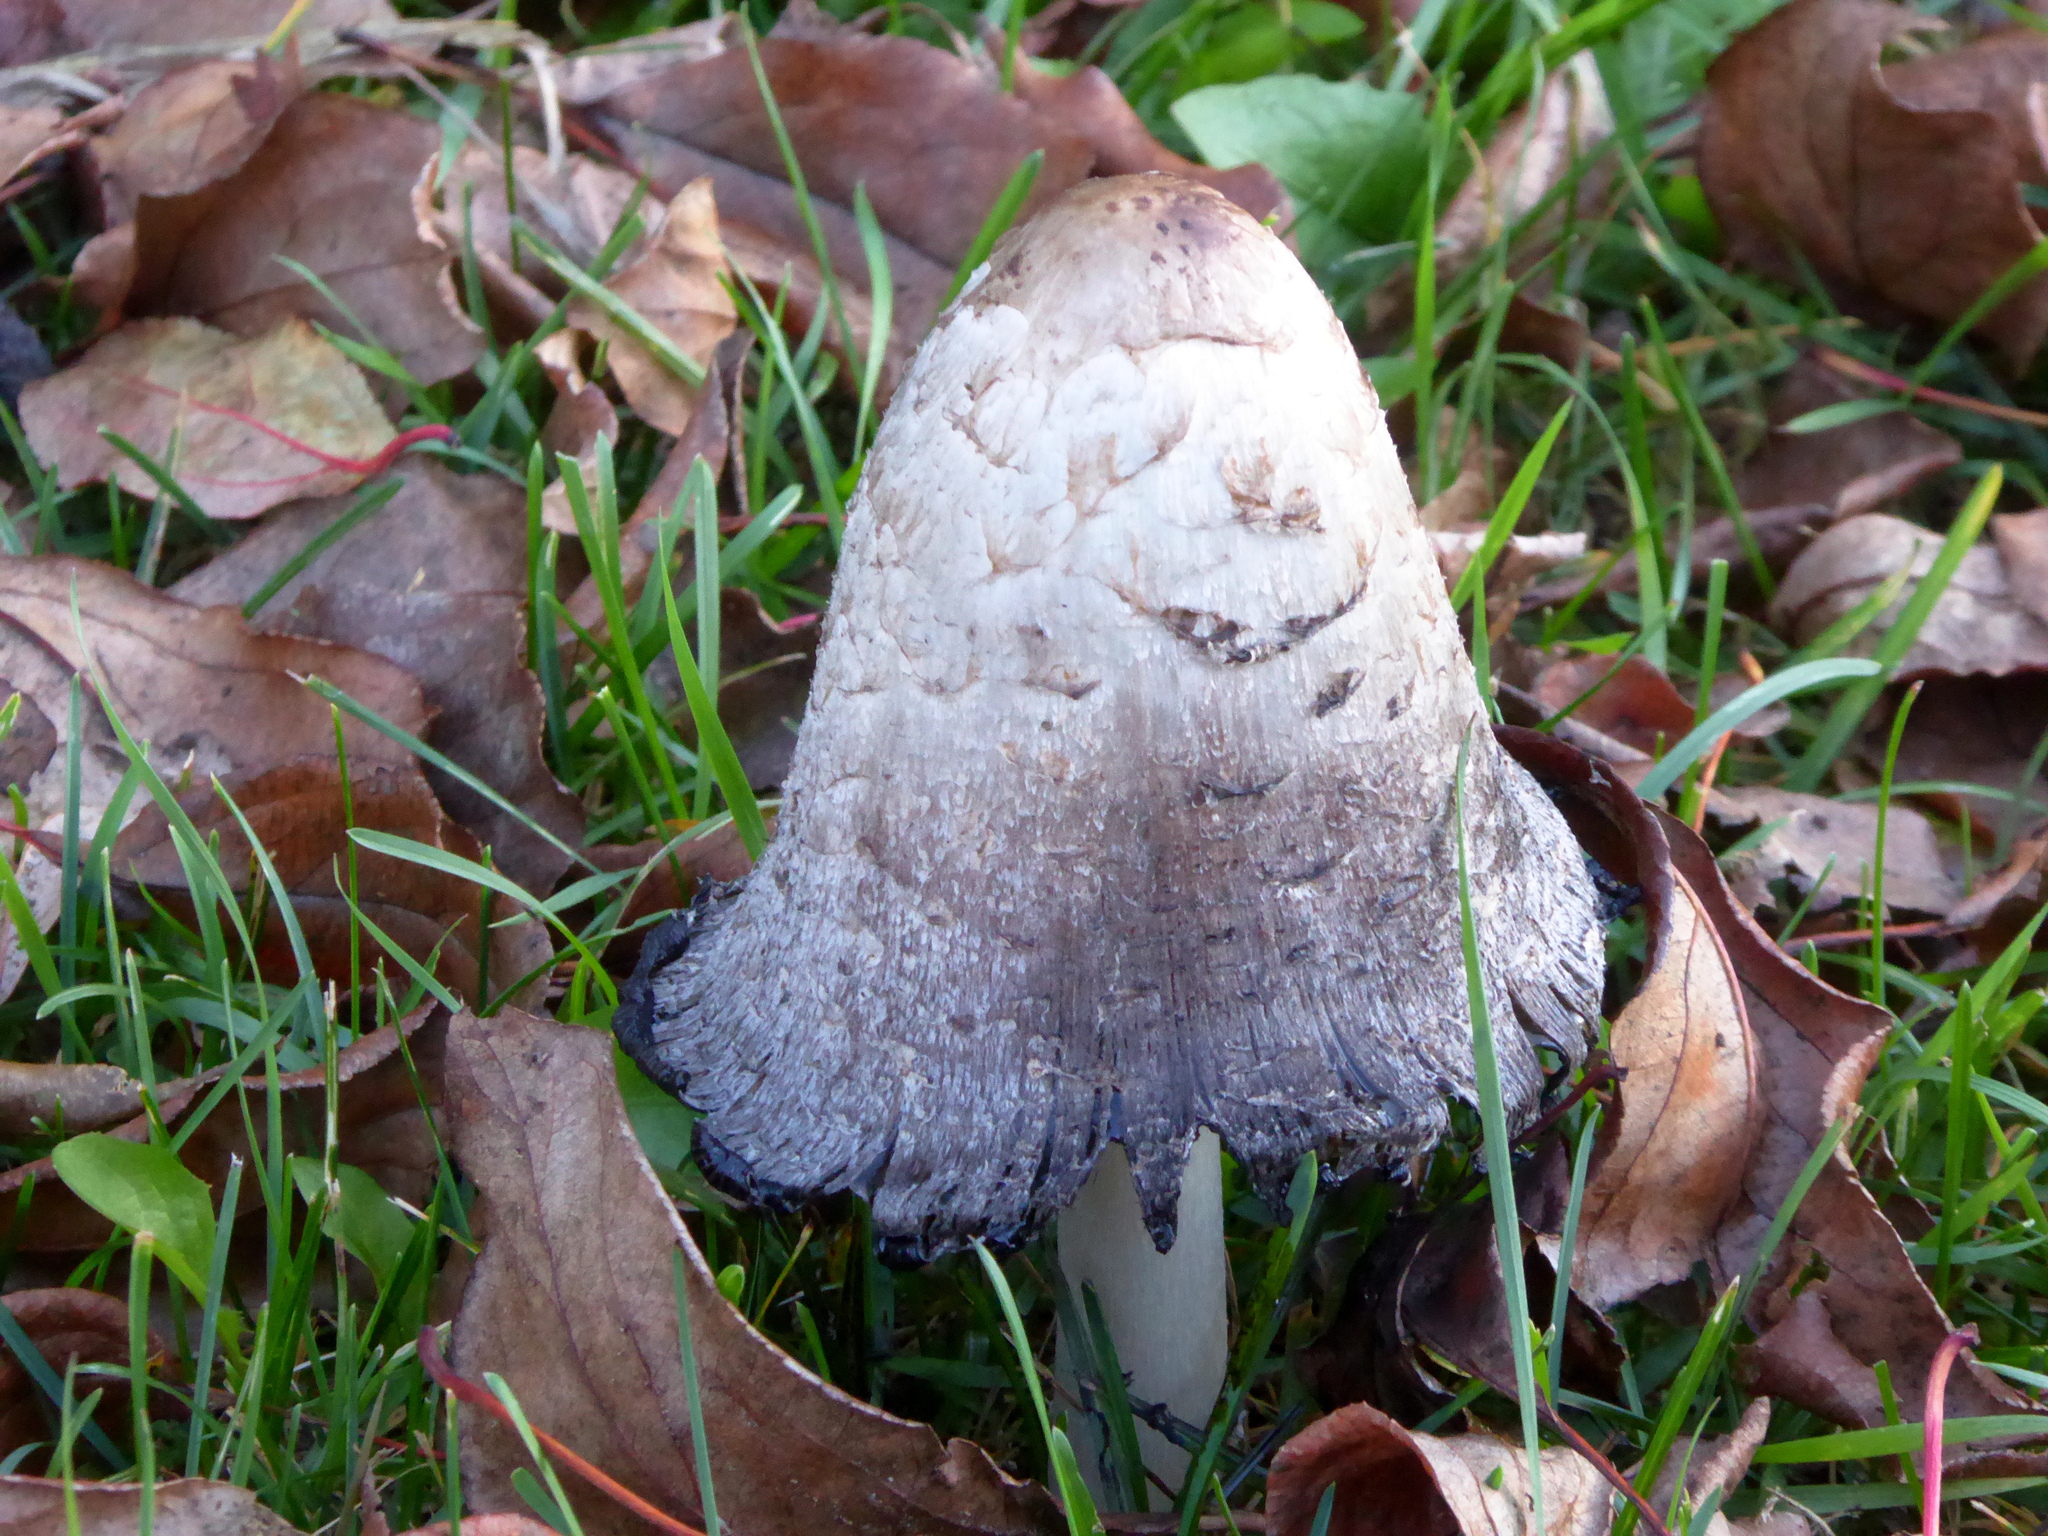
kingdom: Fungi
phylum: Basidiomycota
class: Agaricomycetes
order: Agaricales
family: Agaricaceae
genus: Coprinus
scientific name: Coprinus comatus
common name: Lawyer's wig
